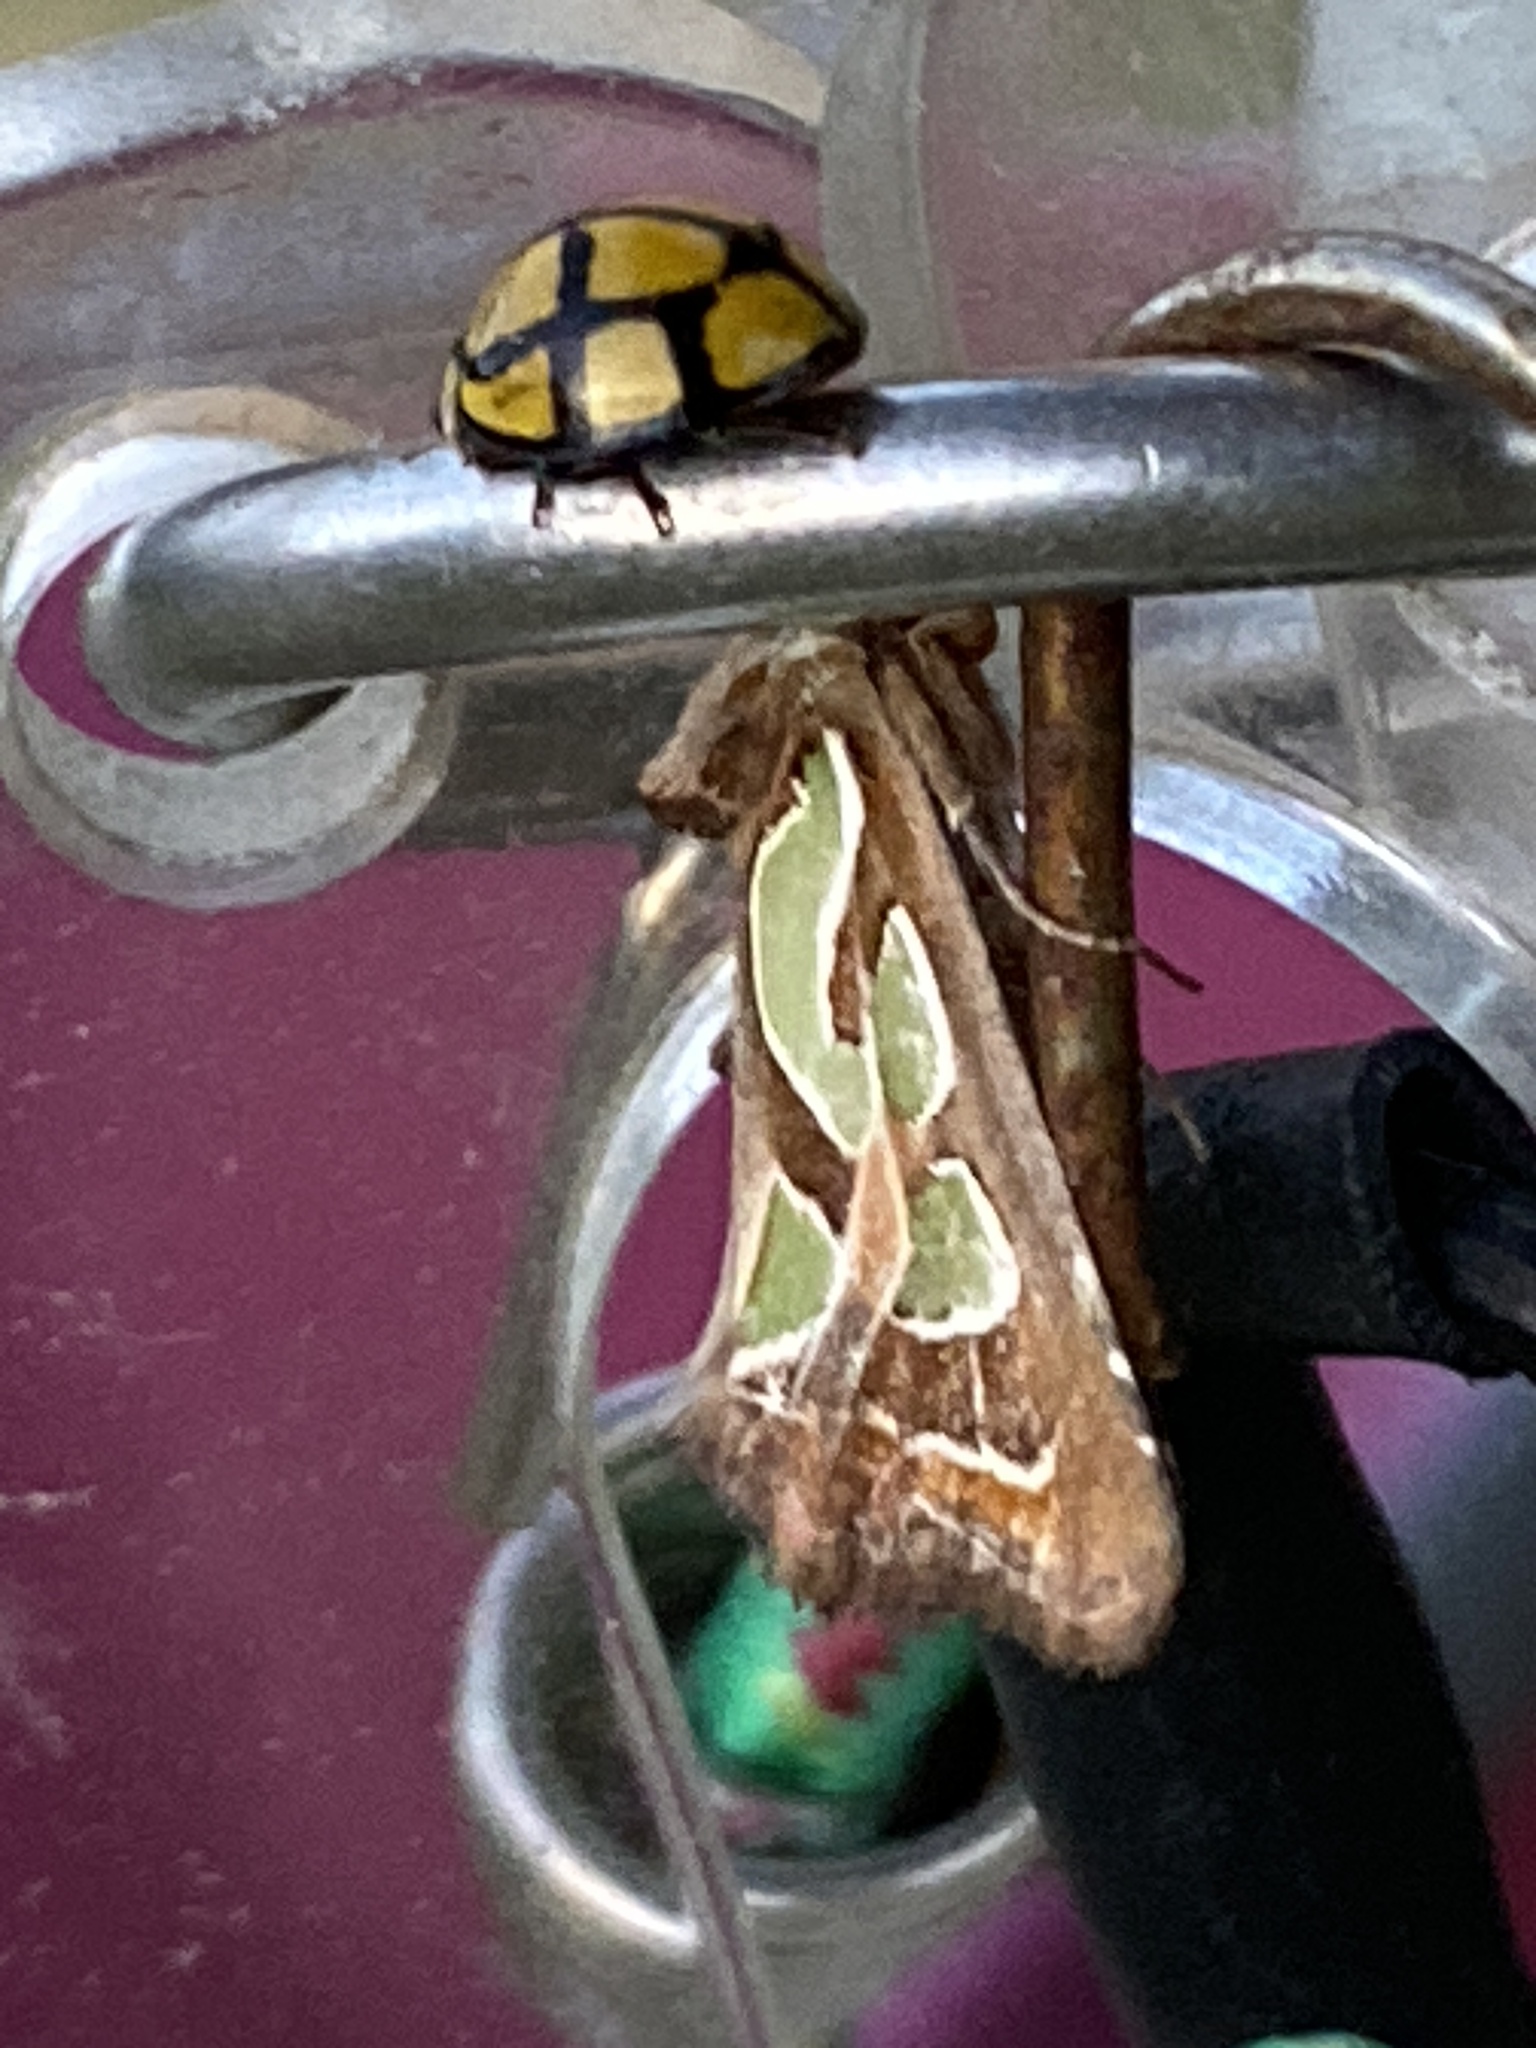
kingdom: Animalia
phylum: Arthropoda
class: Insecta
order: Lepidoptera
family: Noctuidae
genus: Cosmodes
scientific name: Cosmodes elegans
